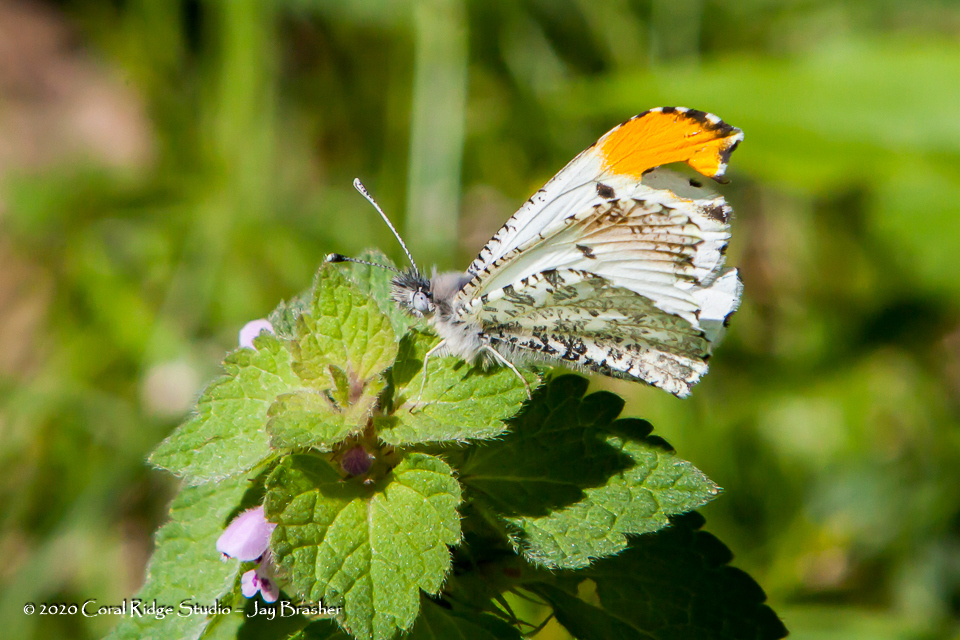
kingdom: Animalia
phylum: Arthropoda
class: Insecta
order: Lepidoptera
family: Pieridae
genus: Anthocharis
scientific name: Anthocharis midea
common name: Falcate orangetip
